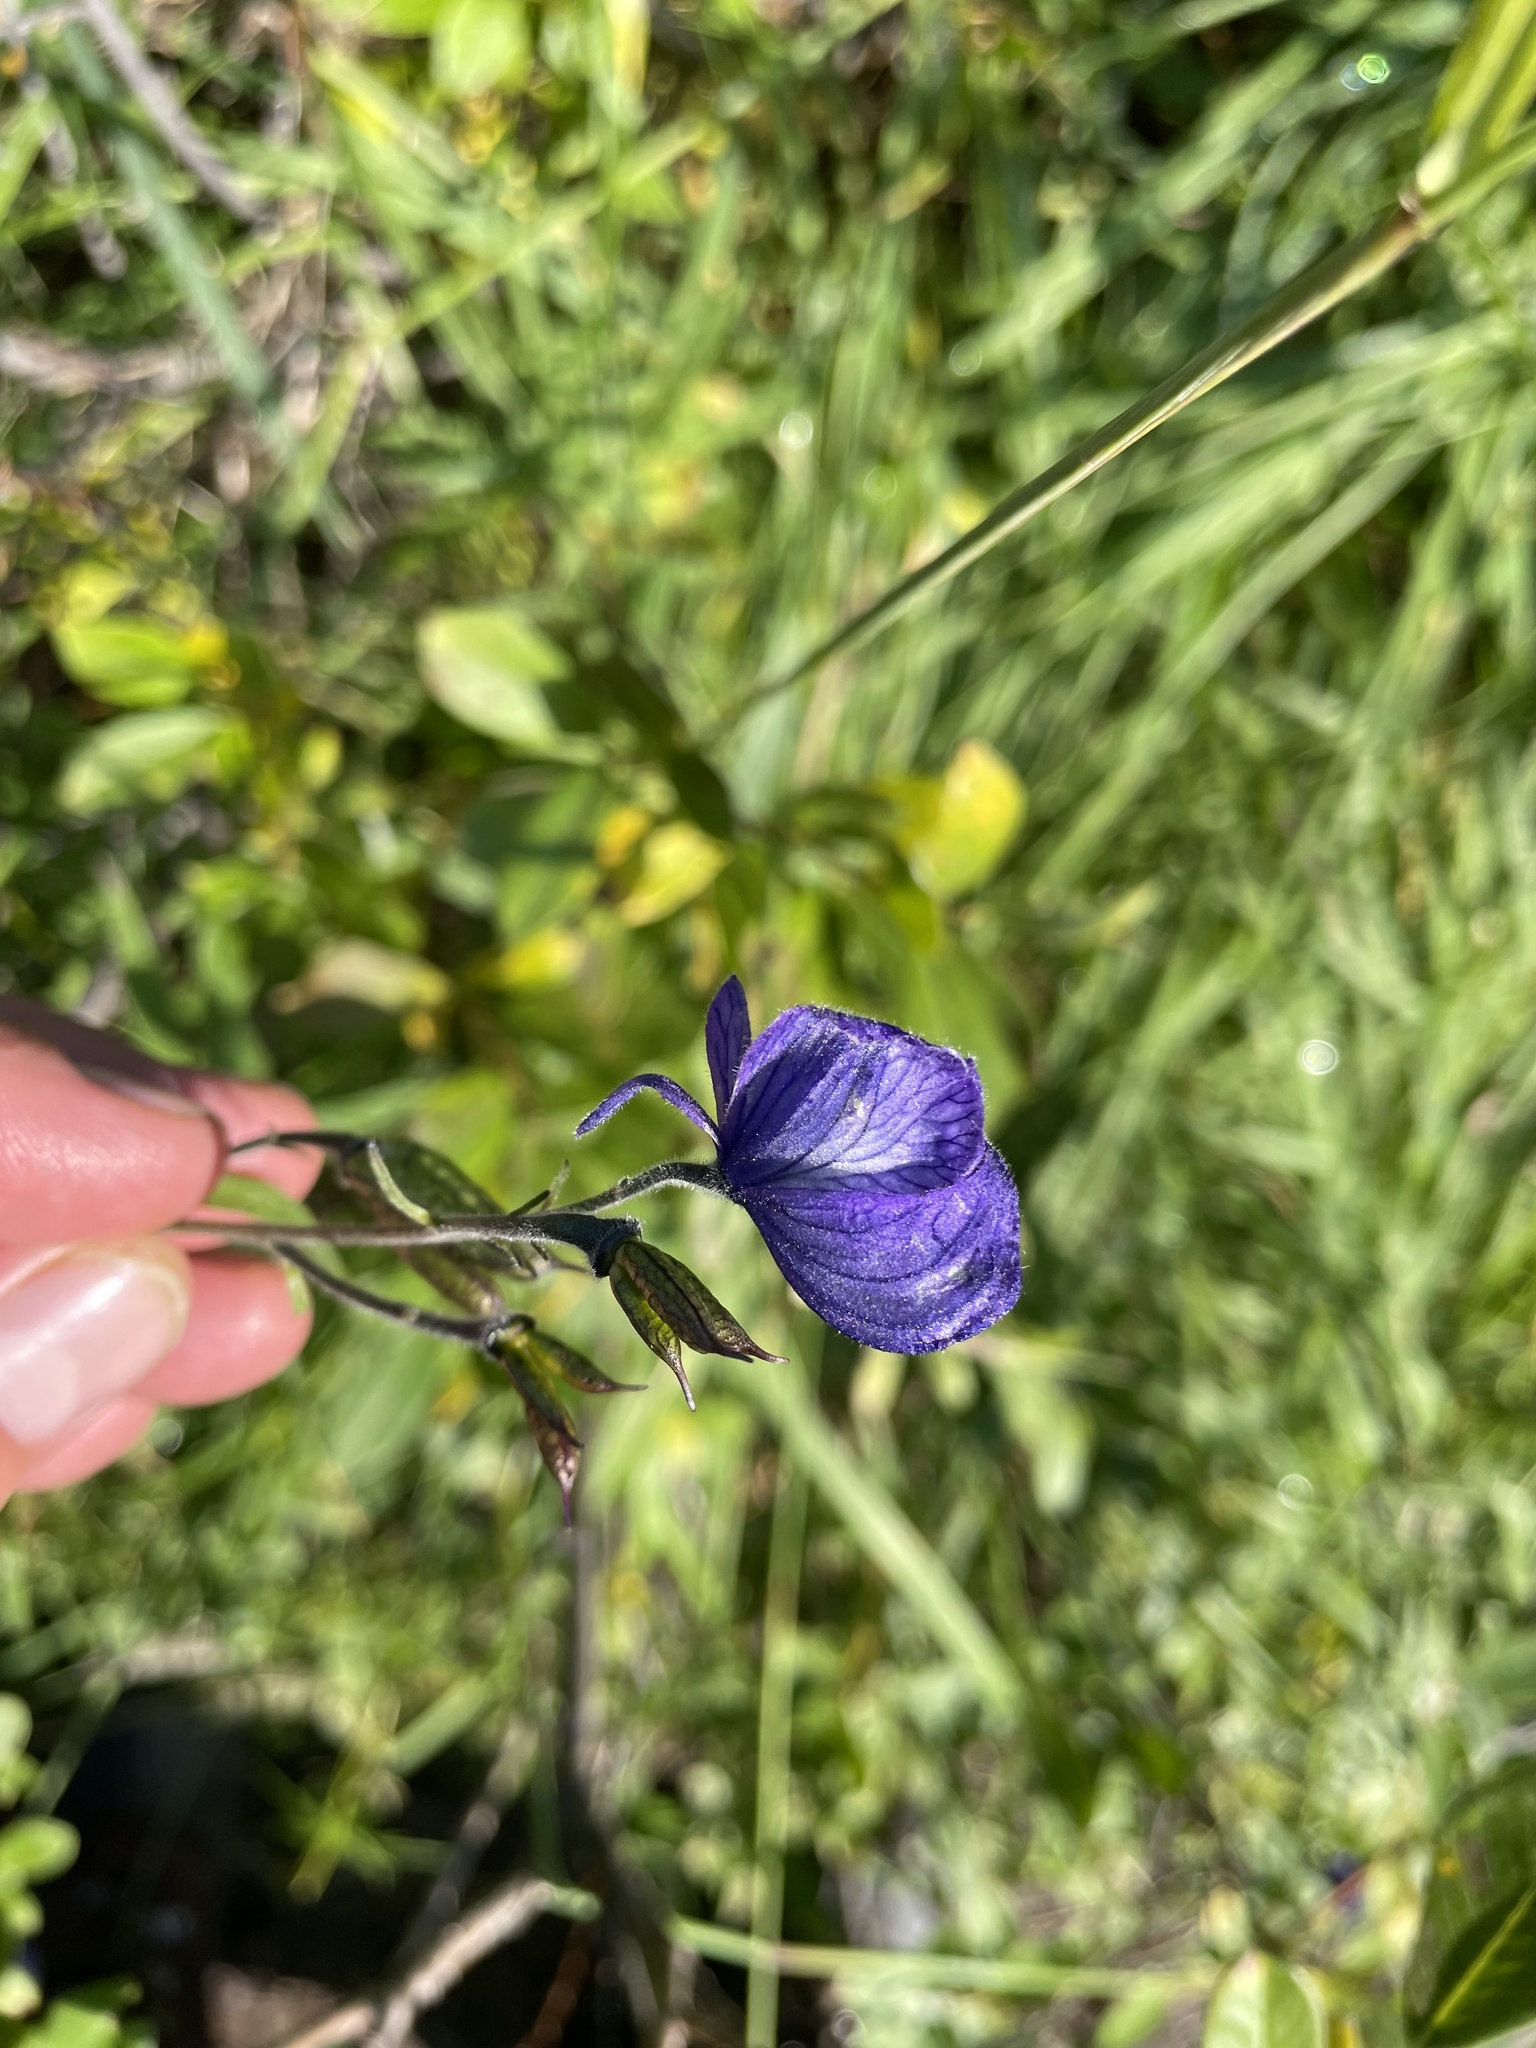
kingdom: Plantae
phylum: Tracheophyta
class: Magnoliopsida
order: Ranunculales
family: Ranunculaceae
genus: Aconitum
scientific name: Aconitum delphiniifolium
